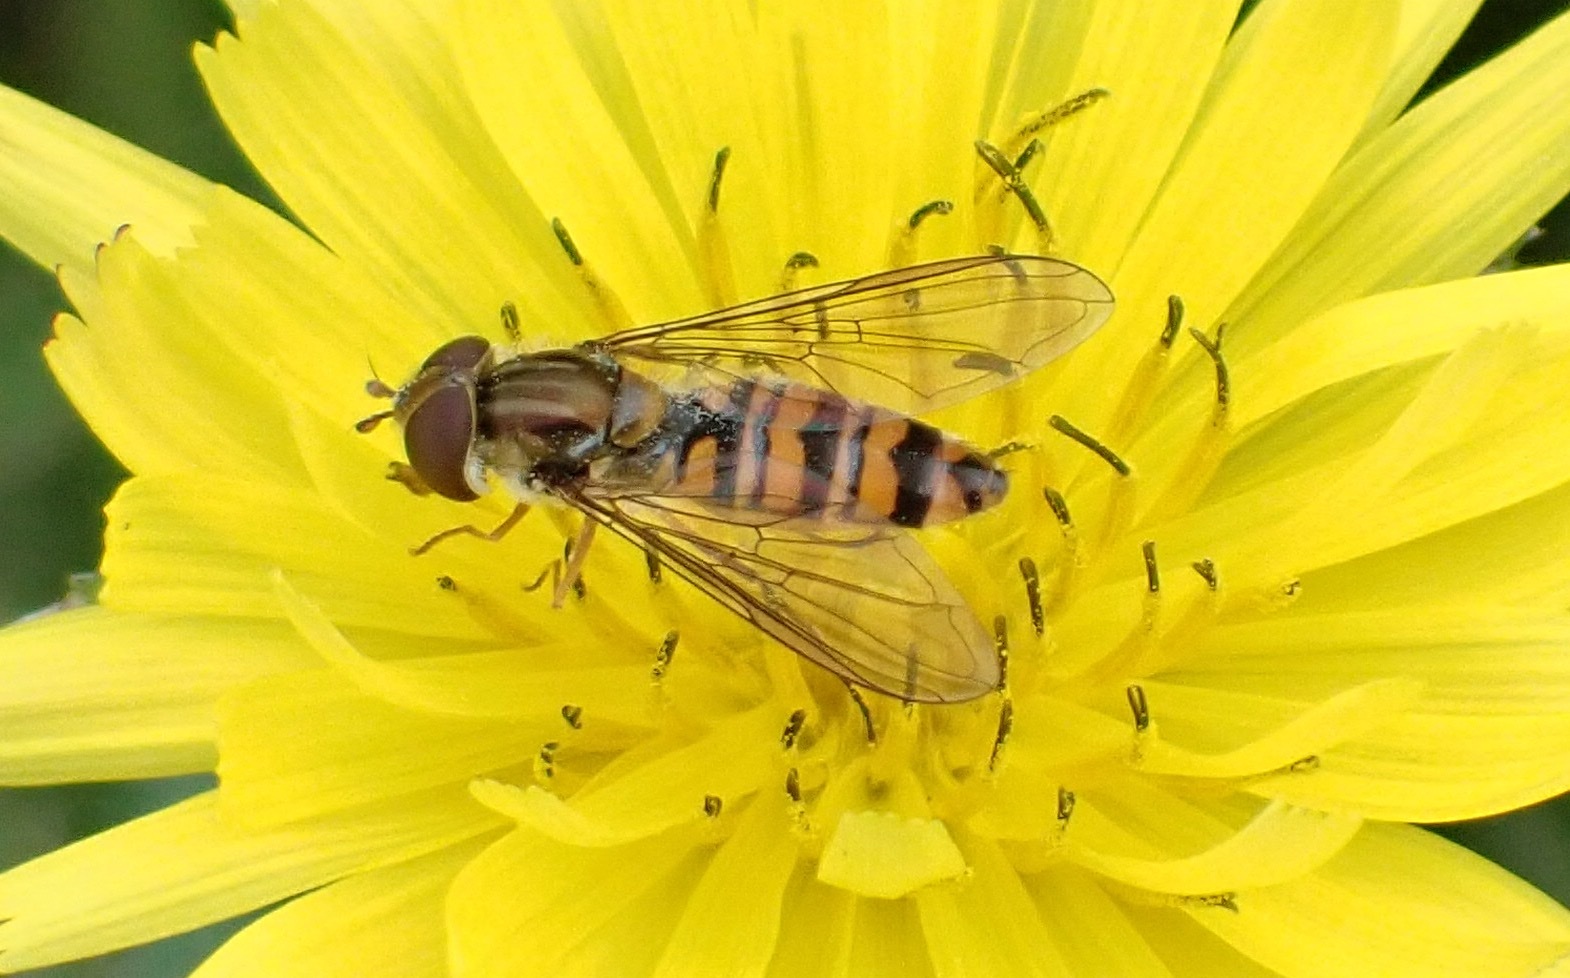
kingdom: Animalia
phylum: Arthropoda
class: Insecta
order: Diptera
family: Syrphidae
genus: Episyrphus
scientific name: Episyrphus balteatus
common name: Marmalade hoverfly
